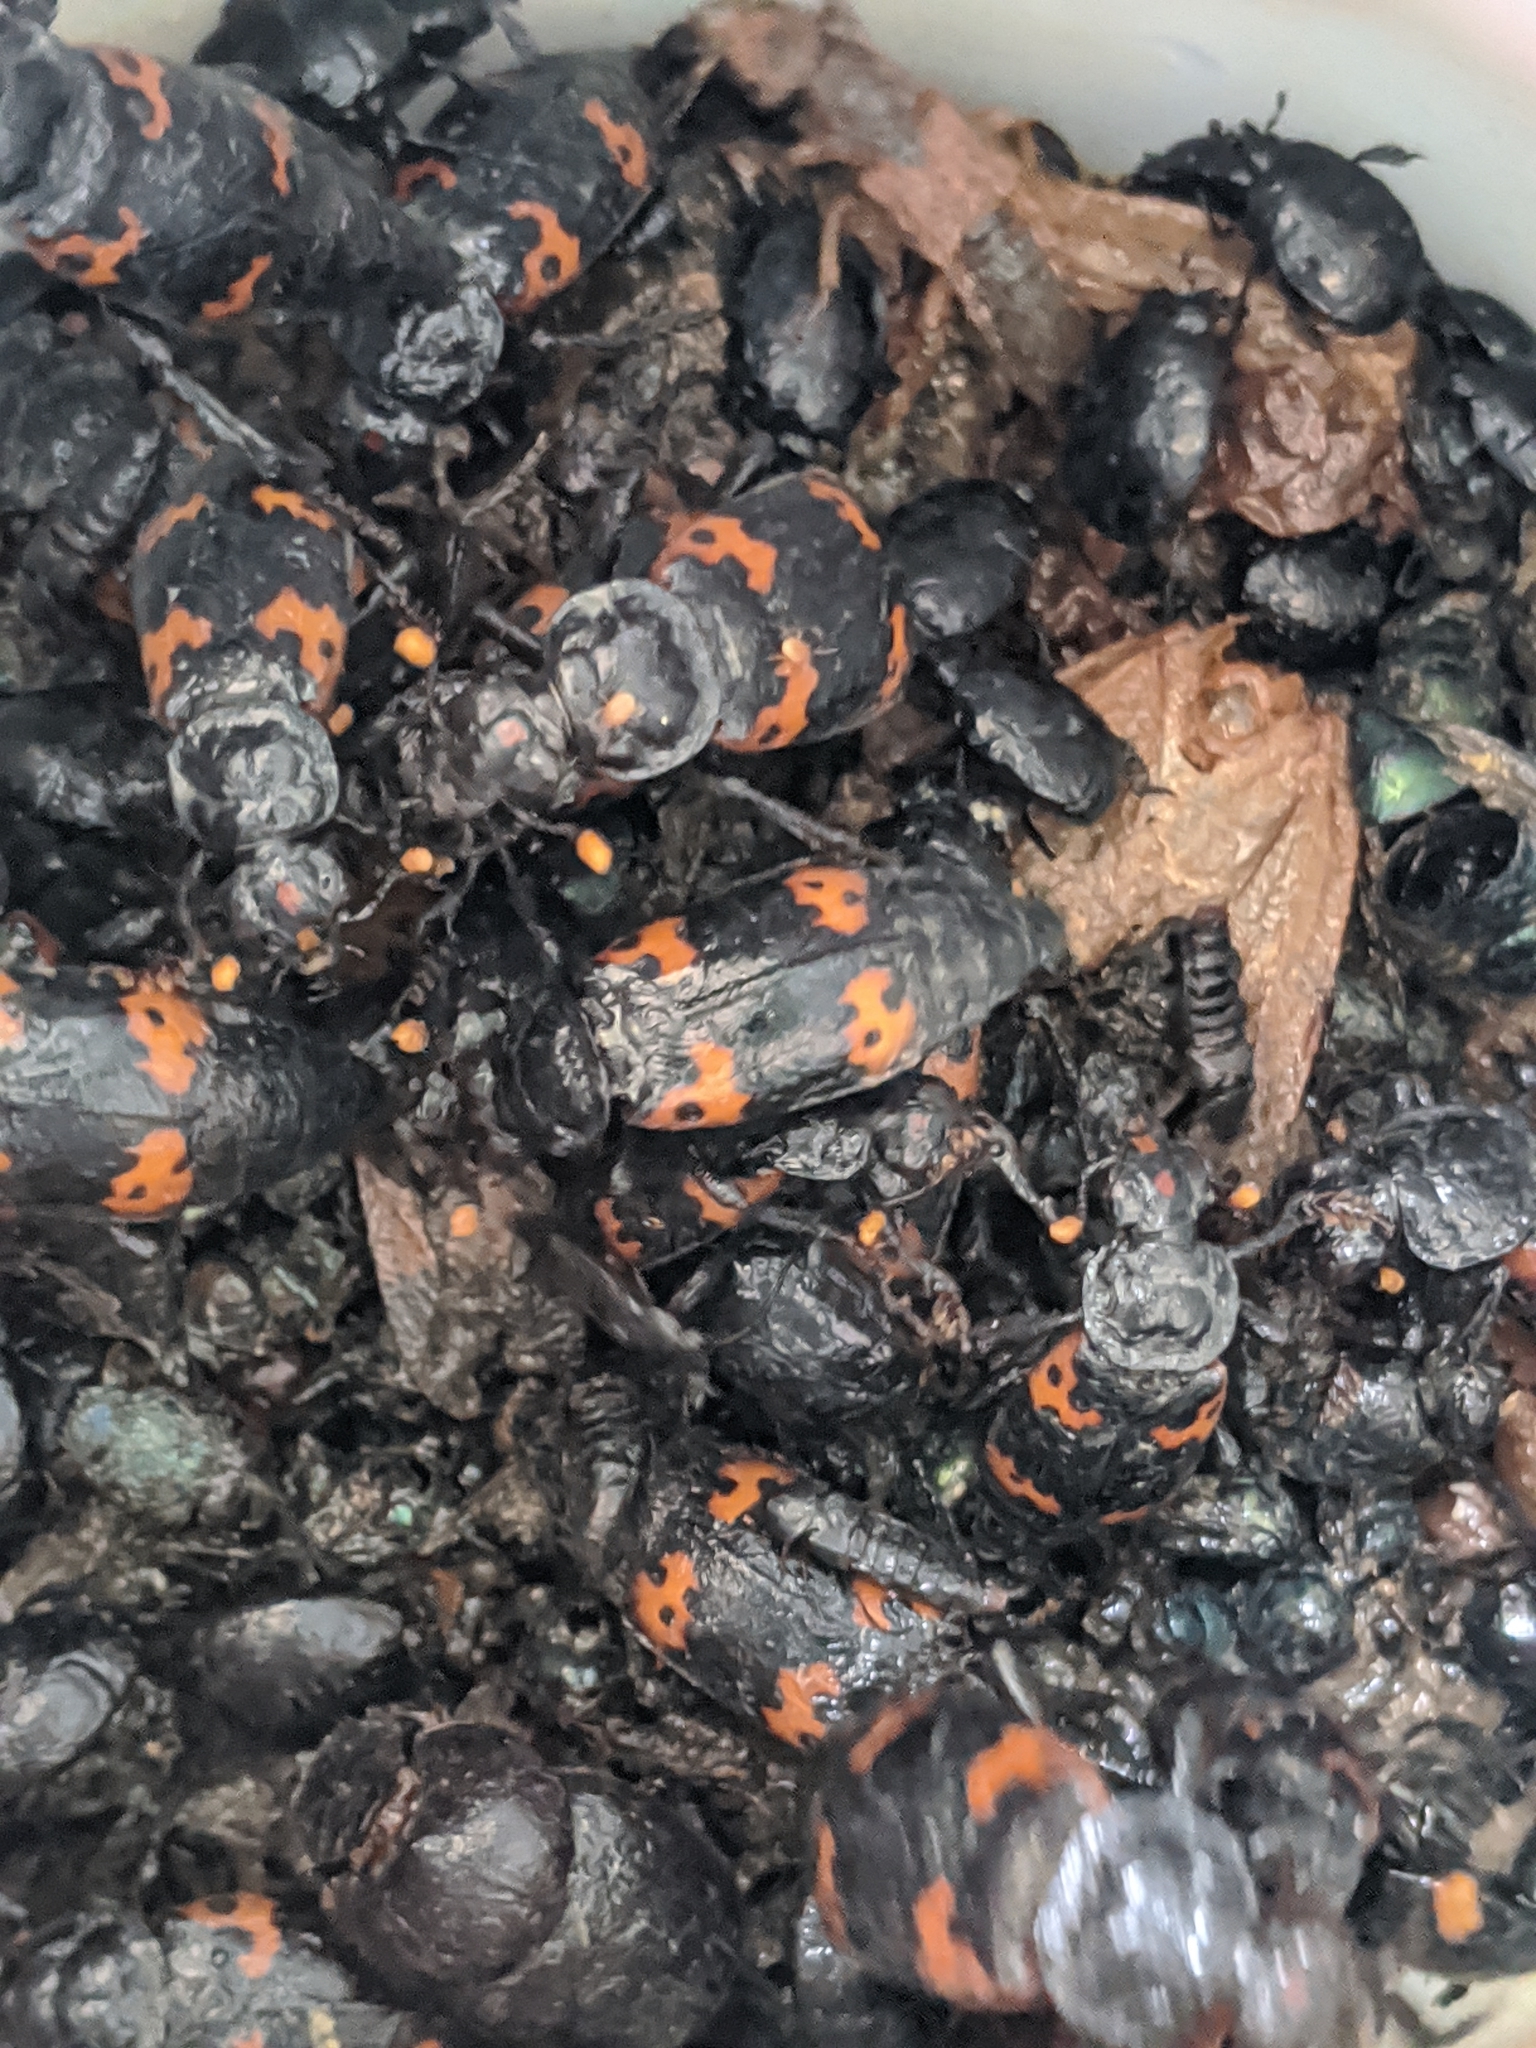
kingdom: Animalia
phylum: Arthropoda
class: Insecta
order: Coleoptera
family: Staphylinidae
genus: Nicrophorus
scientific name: Nicrophorus nepalensis
